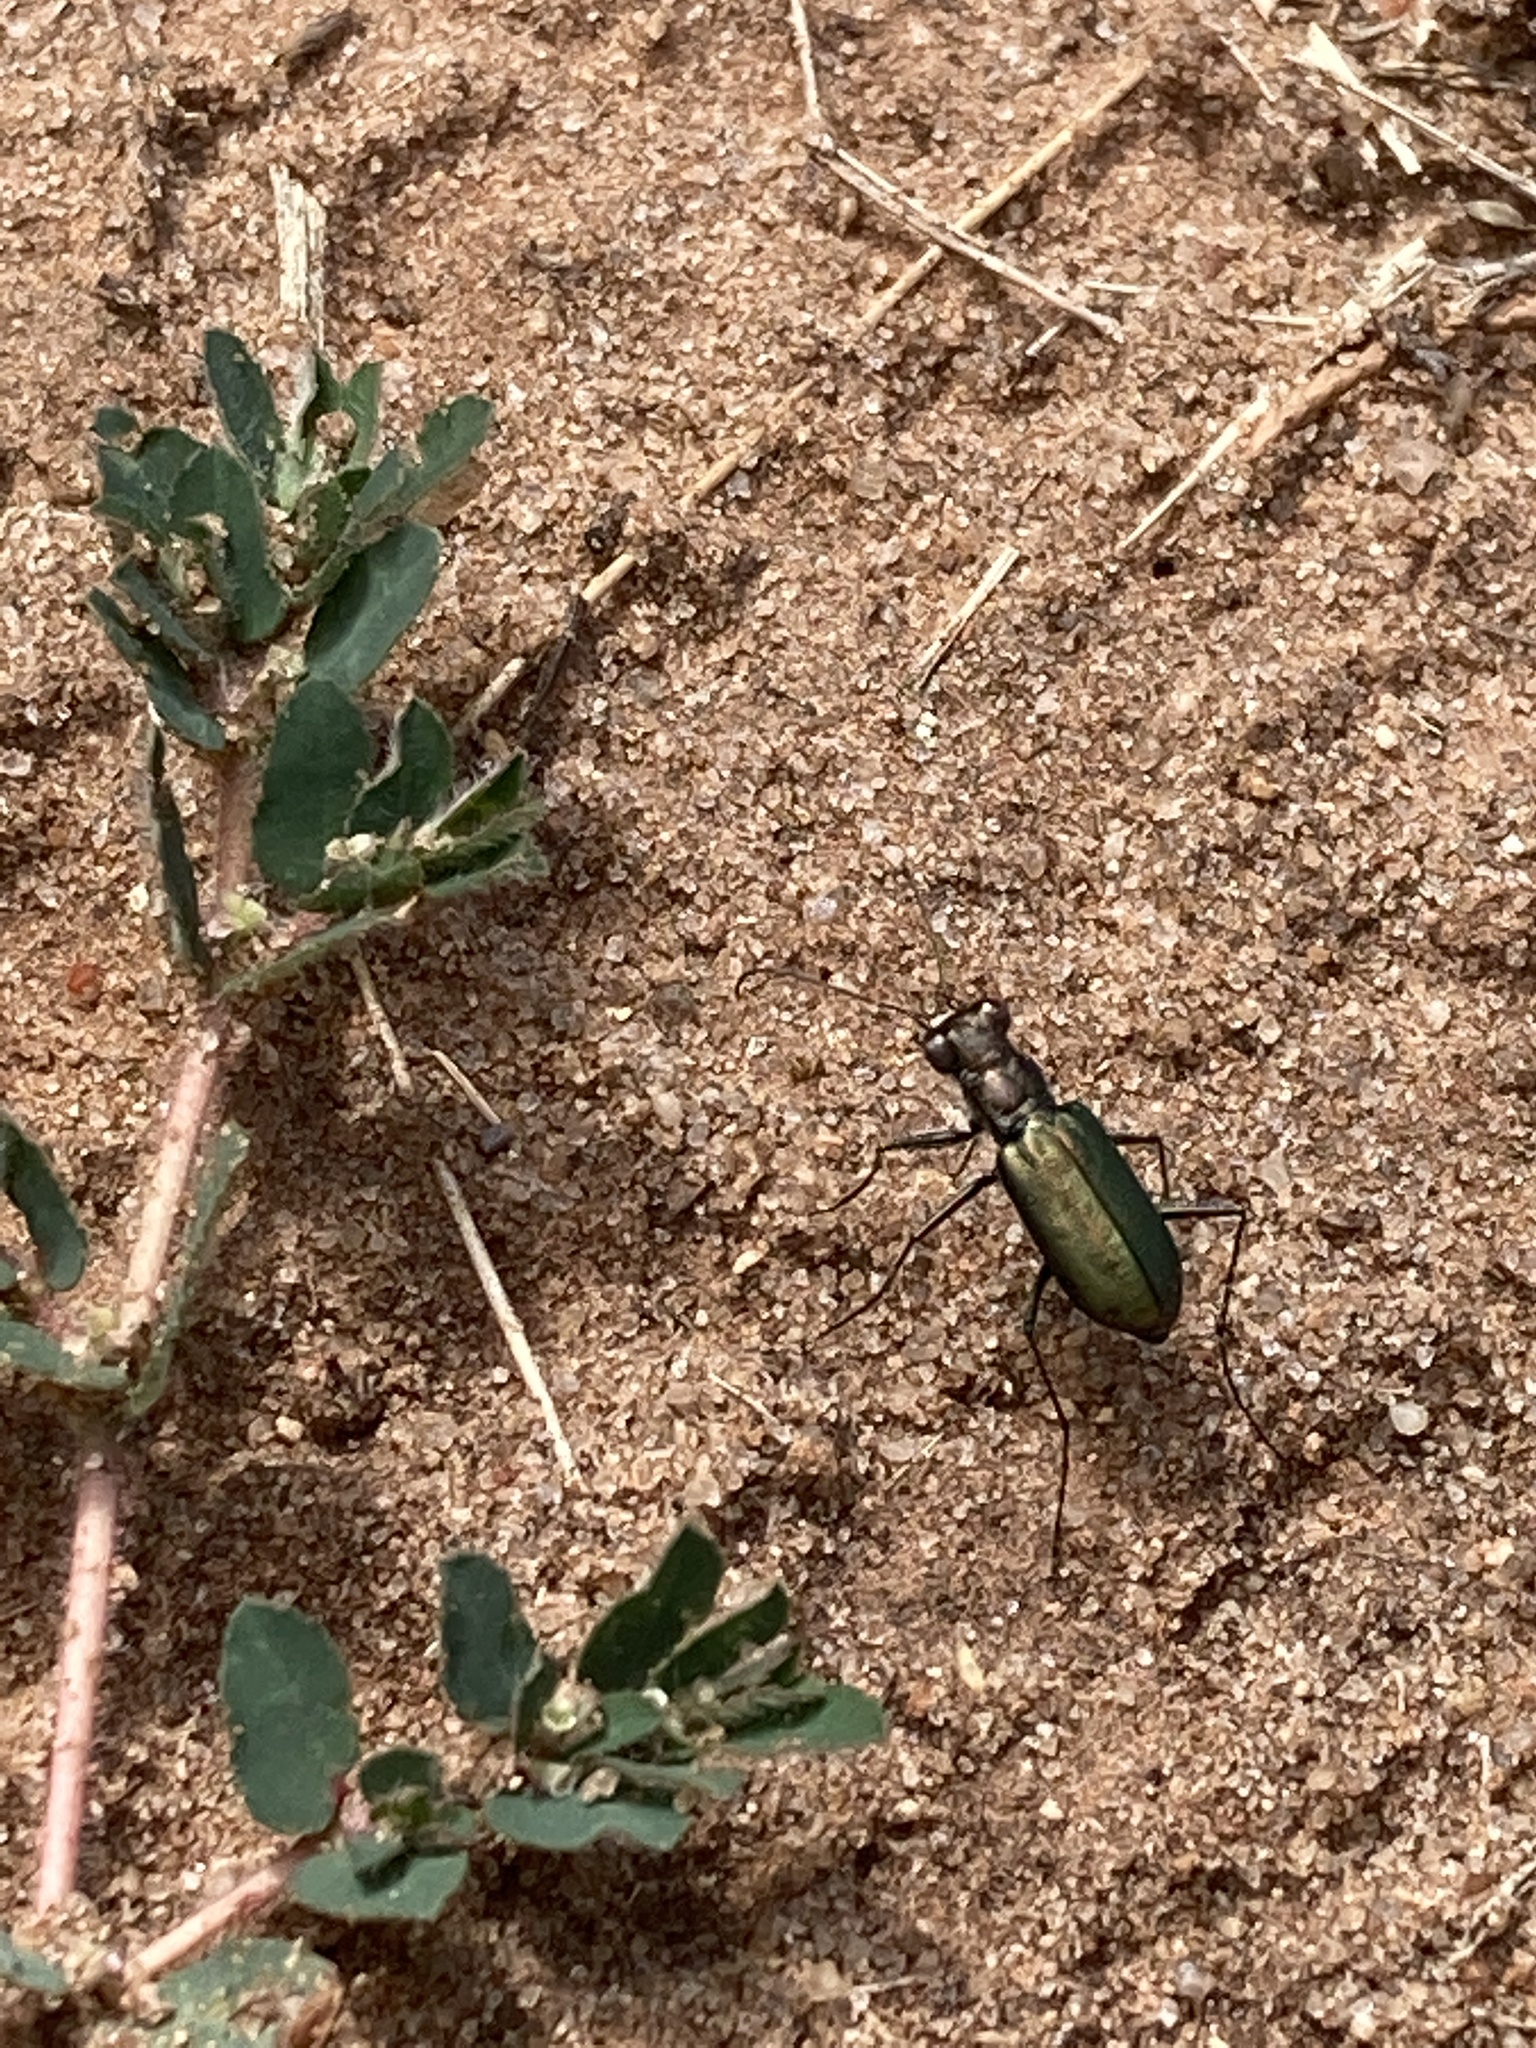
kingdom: Animalia
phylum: Arthropoda
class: Insecta
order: Coleoptera
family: Carabidae
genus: Cicindela
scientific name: Cicindela punctulata
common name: Punctured tiger beetle
